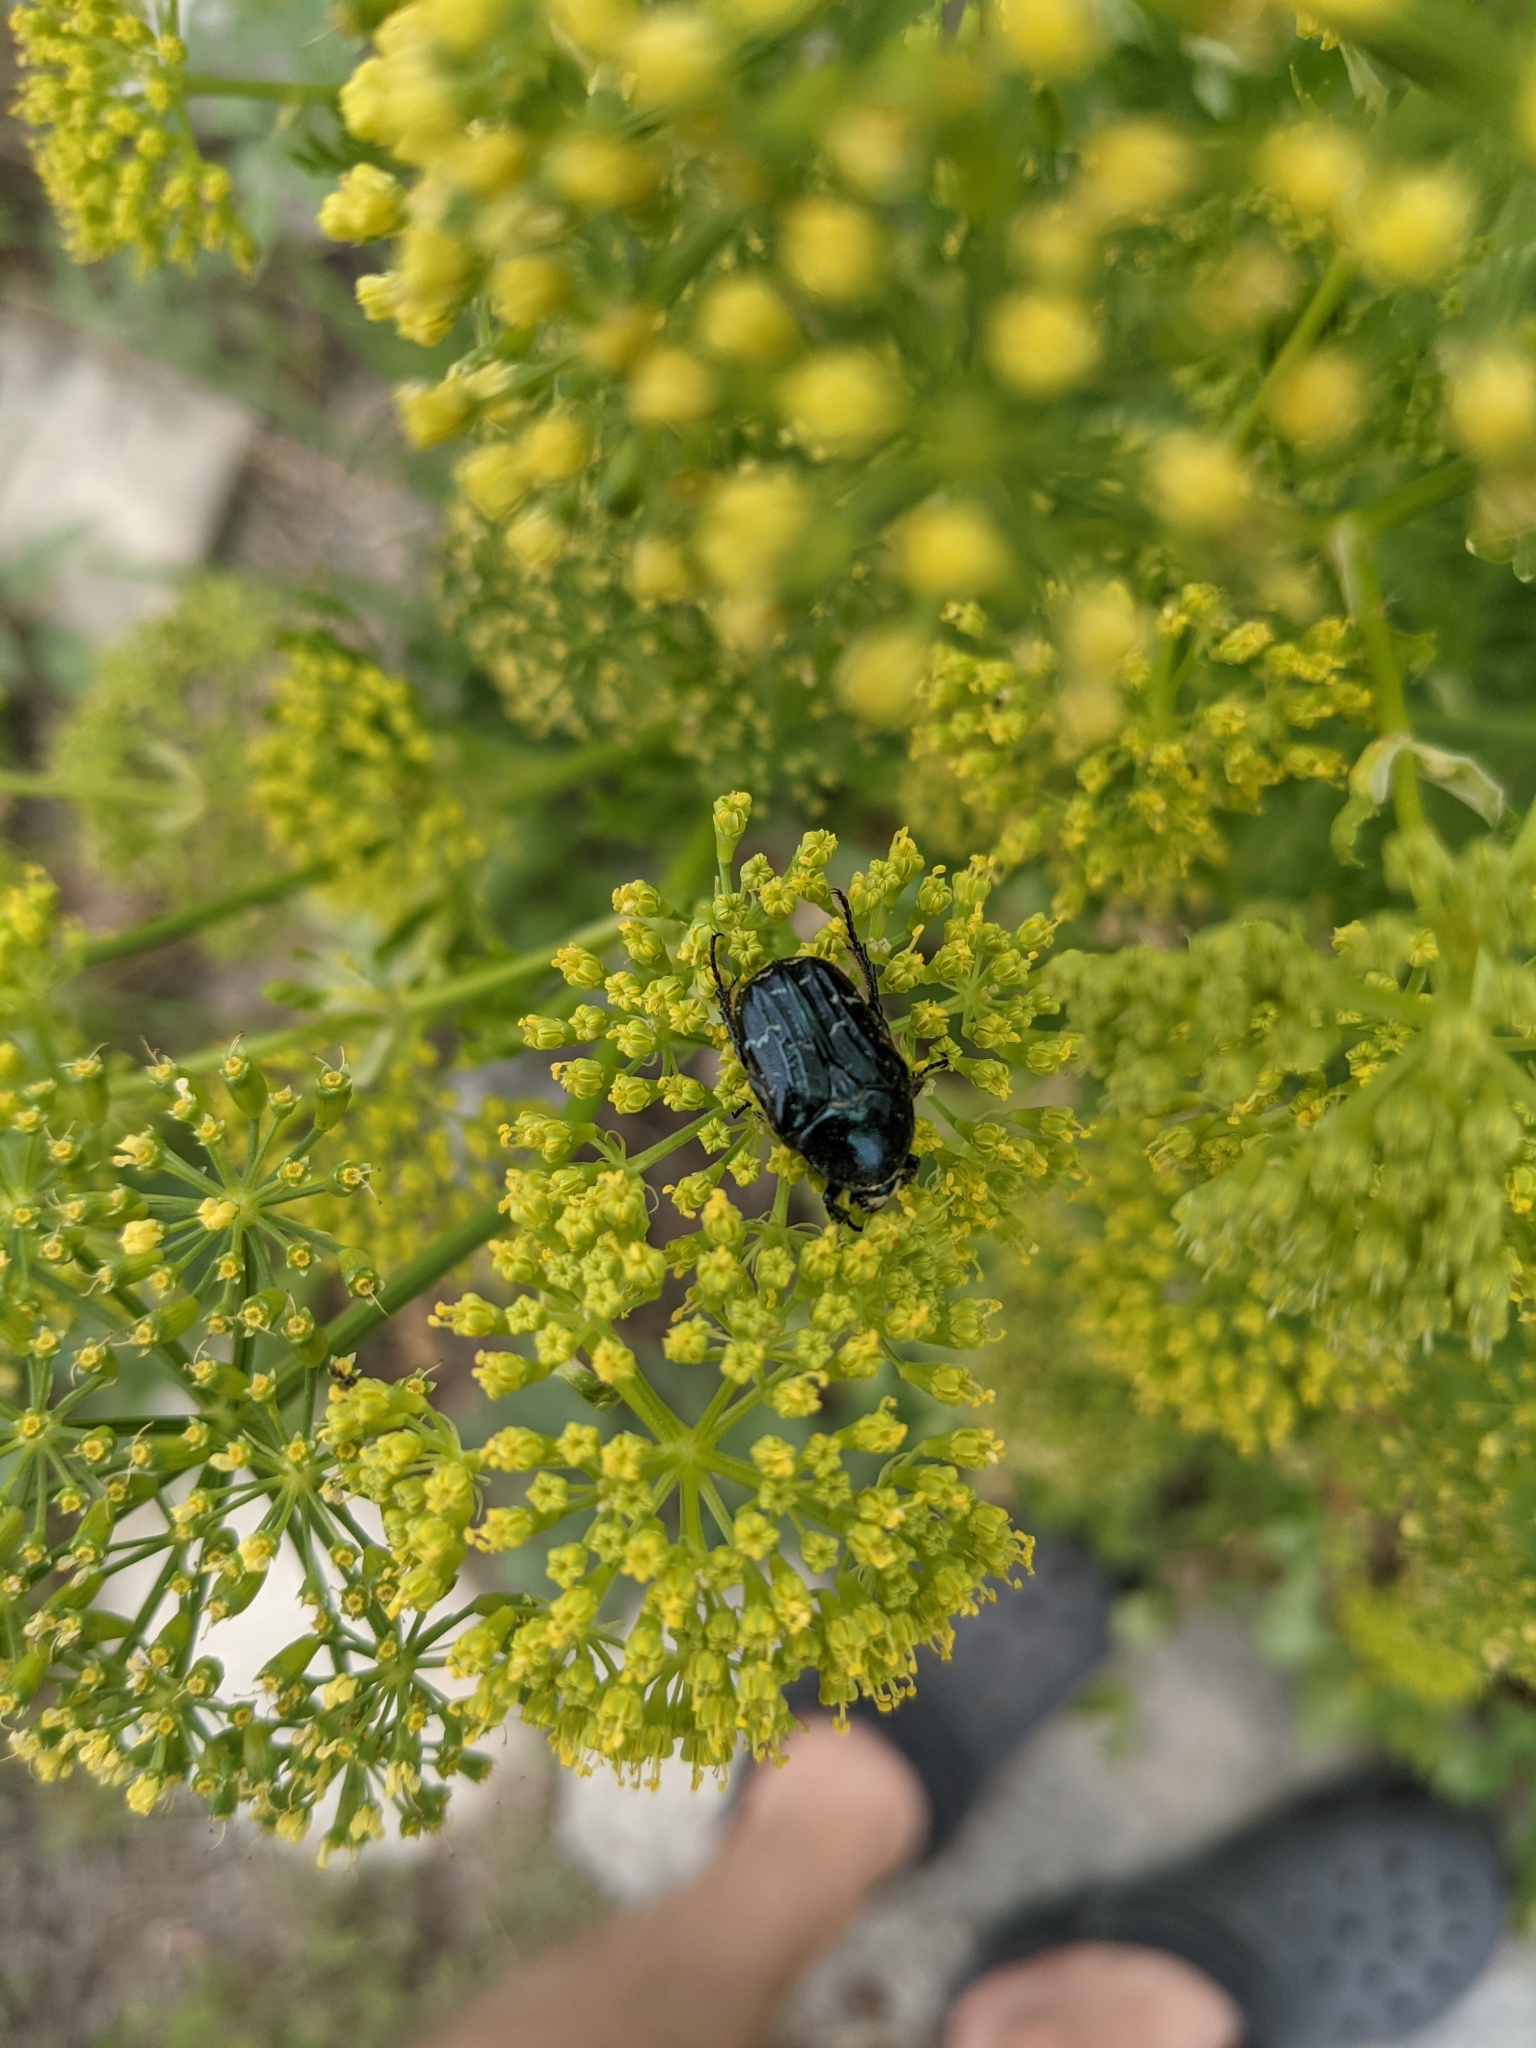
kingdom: Animalia
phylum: Arthropoda
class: Insecta
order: Coleoptera
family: Scarabaeidae
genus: Euphoria
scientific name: Euphoria sepulcralis
